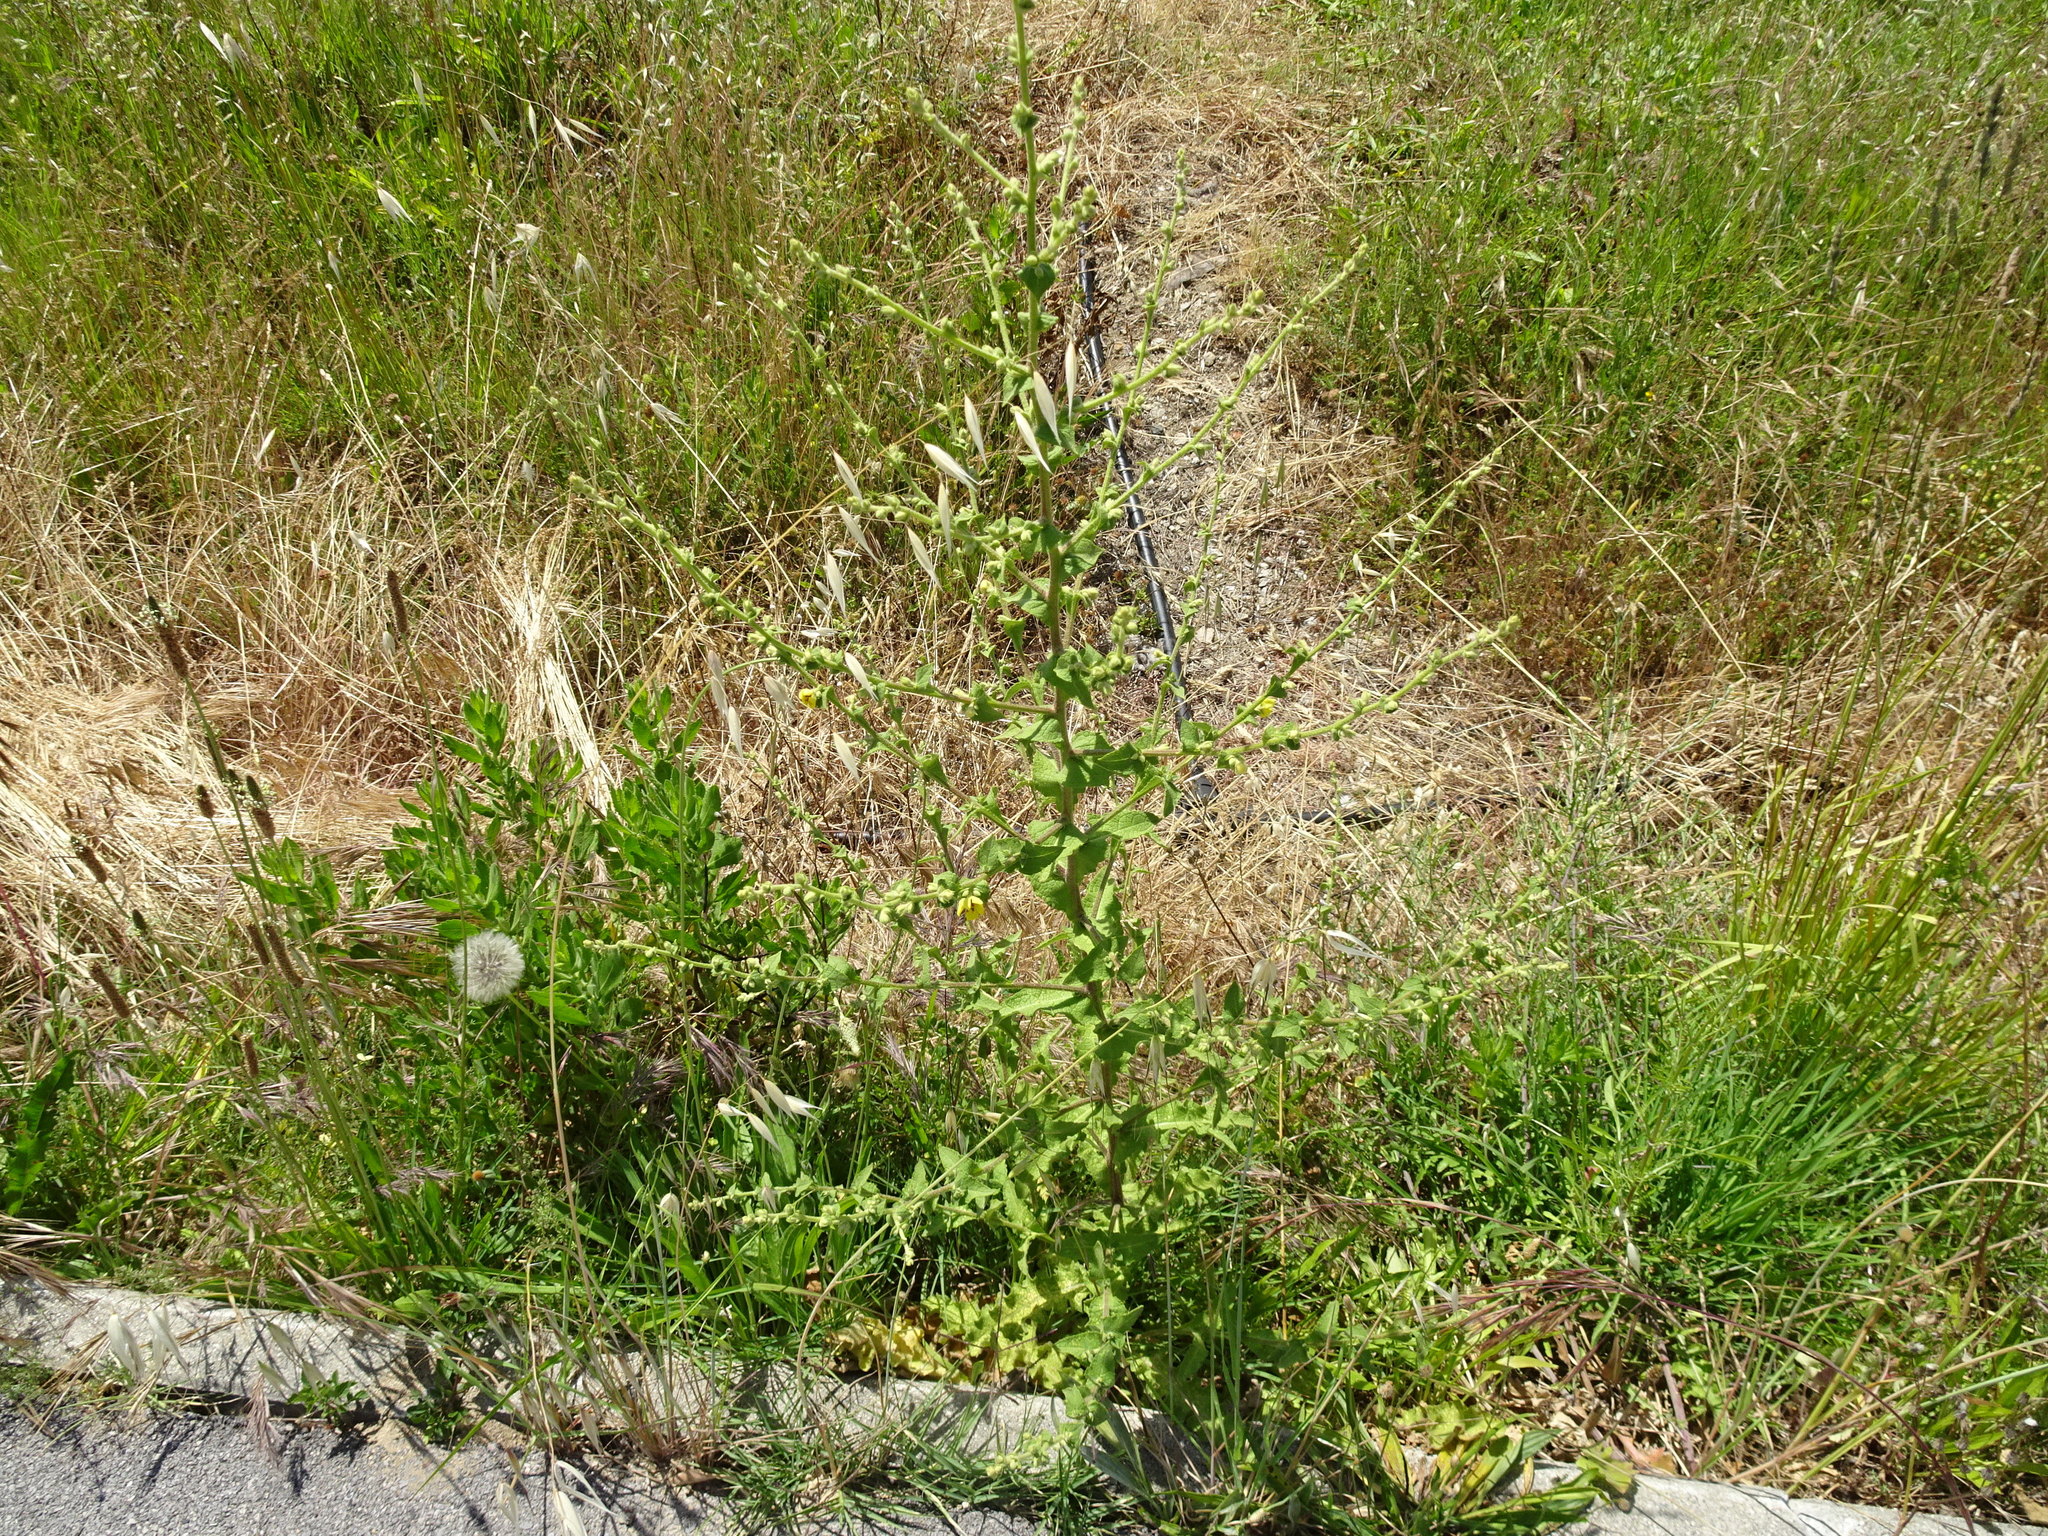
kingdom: Plantae
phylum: Tracheophyta
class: Magnoliopsida
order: Lamiales
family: Scrophulariaceae
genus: Verbascum
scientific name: Verbascum sinuatum
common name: Wavyleaf mullein
